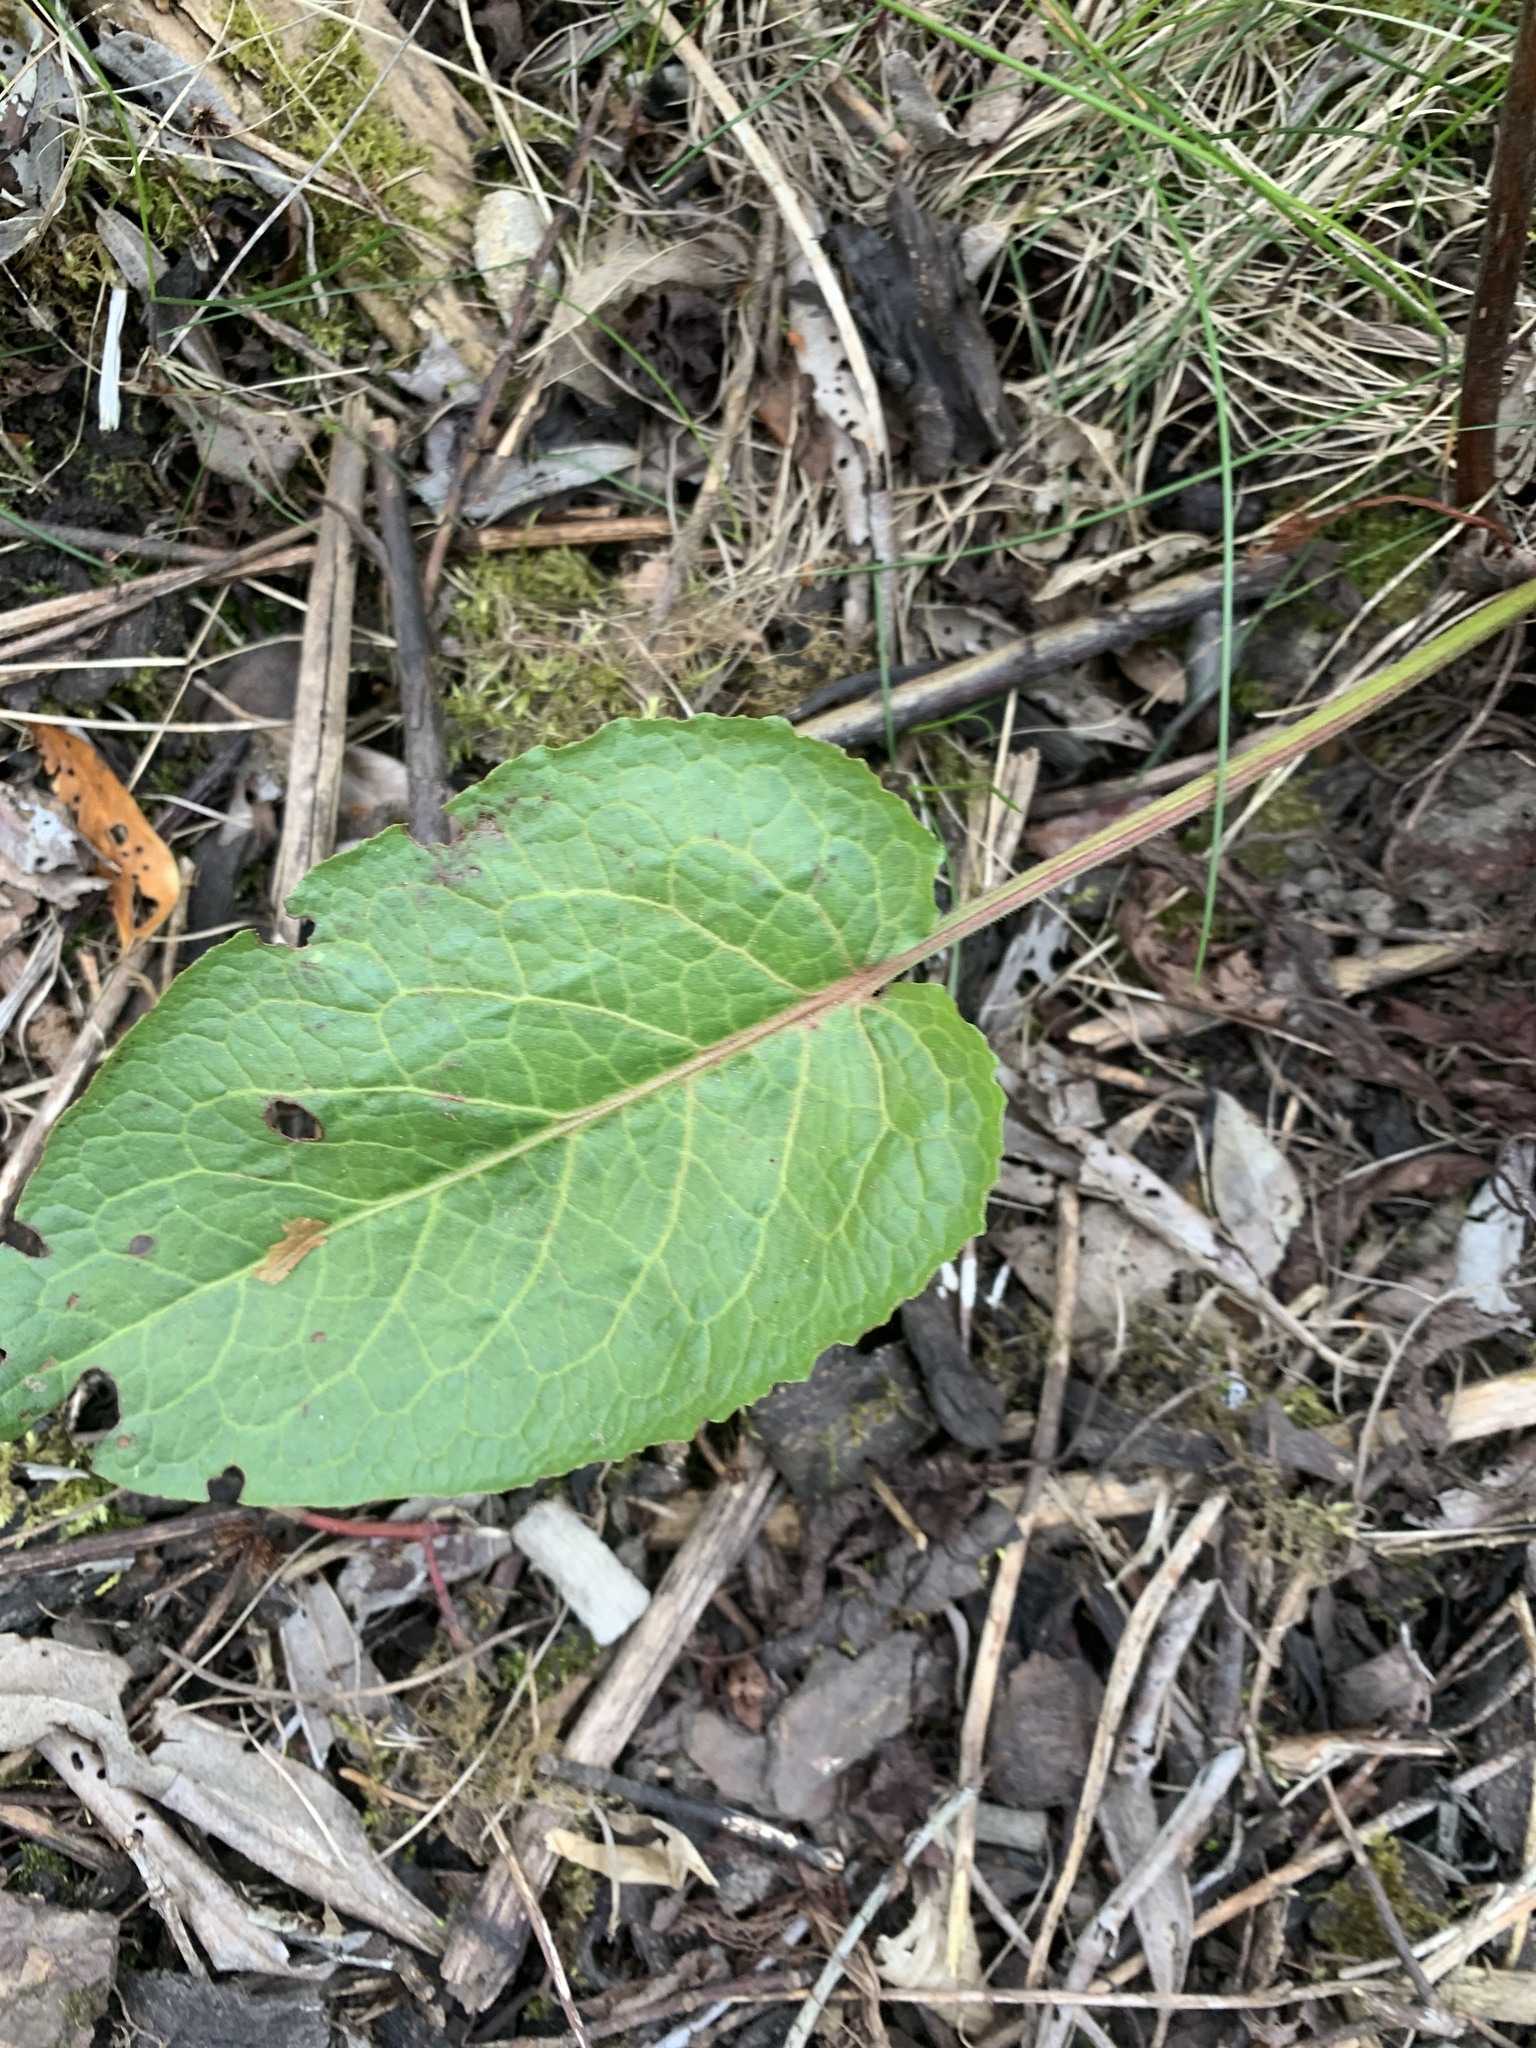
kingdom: Plantae
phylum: Tracheophyta
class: Magnoliopsida
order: Caryophyllales
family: Polygonaceae
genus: Rumex
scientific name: Rumex obtusifolius
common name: Bitter dock
